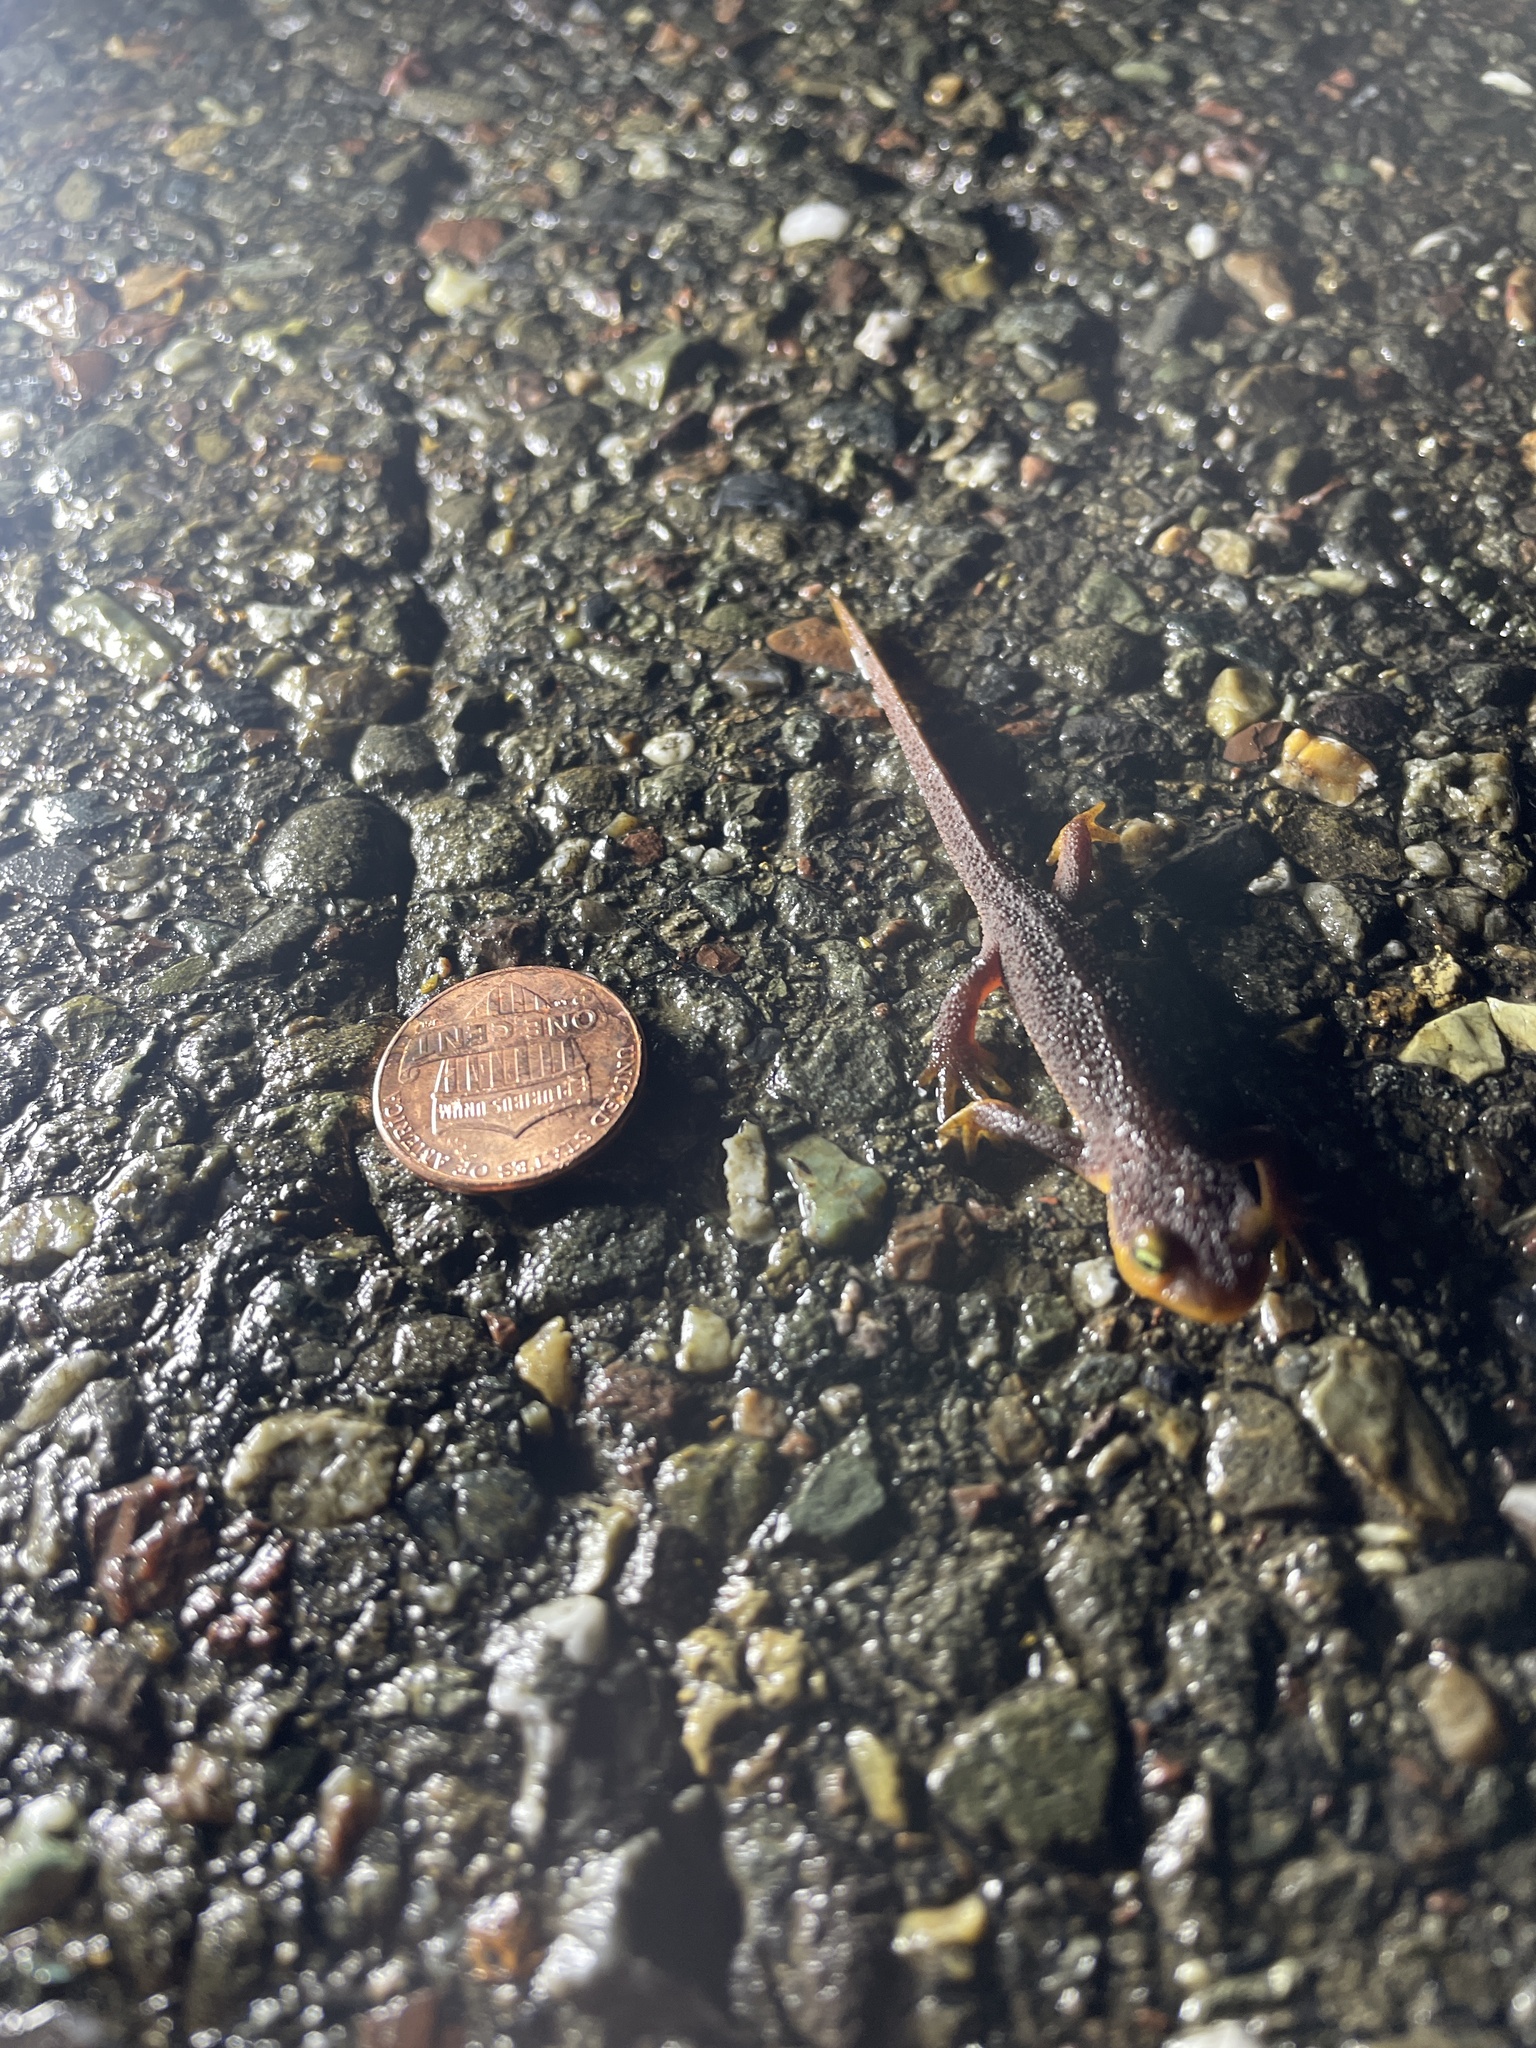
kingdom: Animalia
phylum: Chordata
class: Amphibia
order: Caudata
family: Salamandridae
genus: Taricha
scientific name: Taricha torosa
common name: California newt
